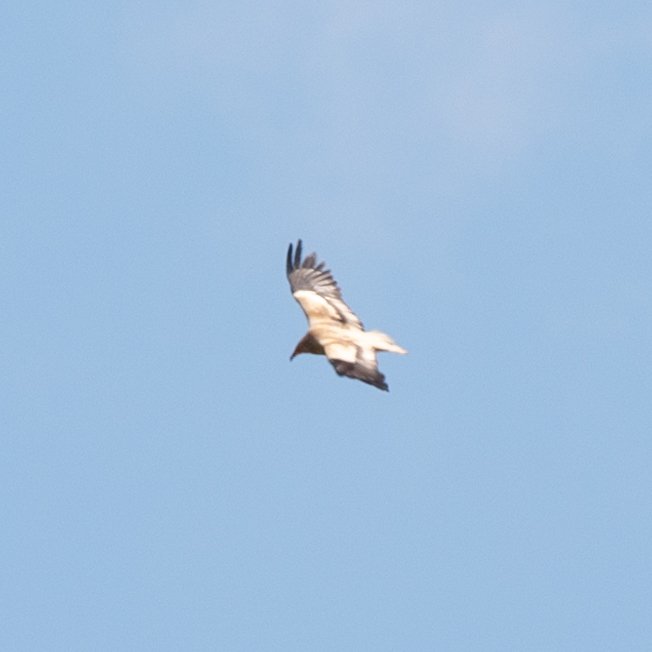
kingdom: Animalia
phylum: Chordata
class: Aves
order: Accipitriformes
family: Accipitridae
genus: Neophron
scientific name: Neophron percnopterus
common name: Egyptian vulture
